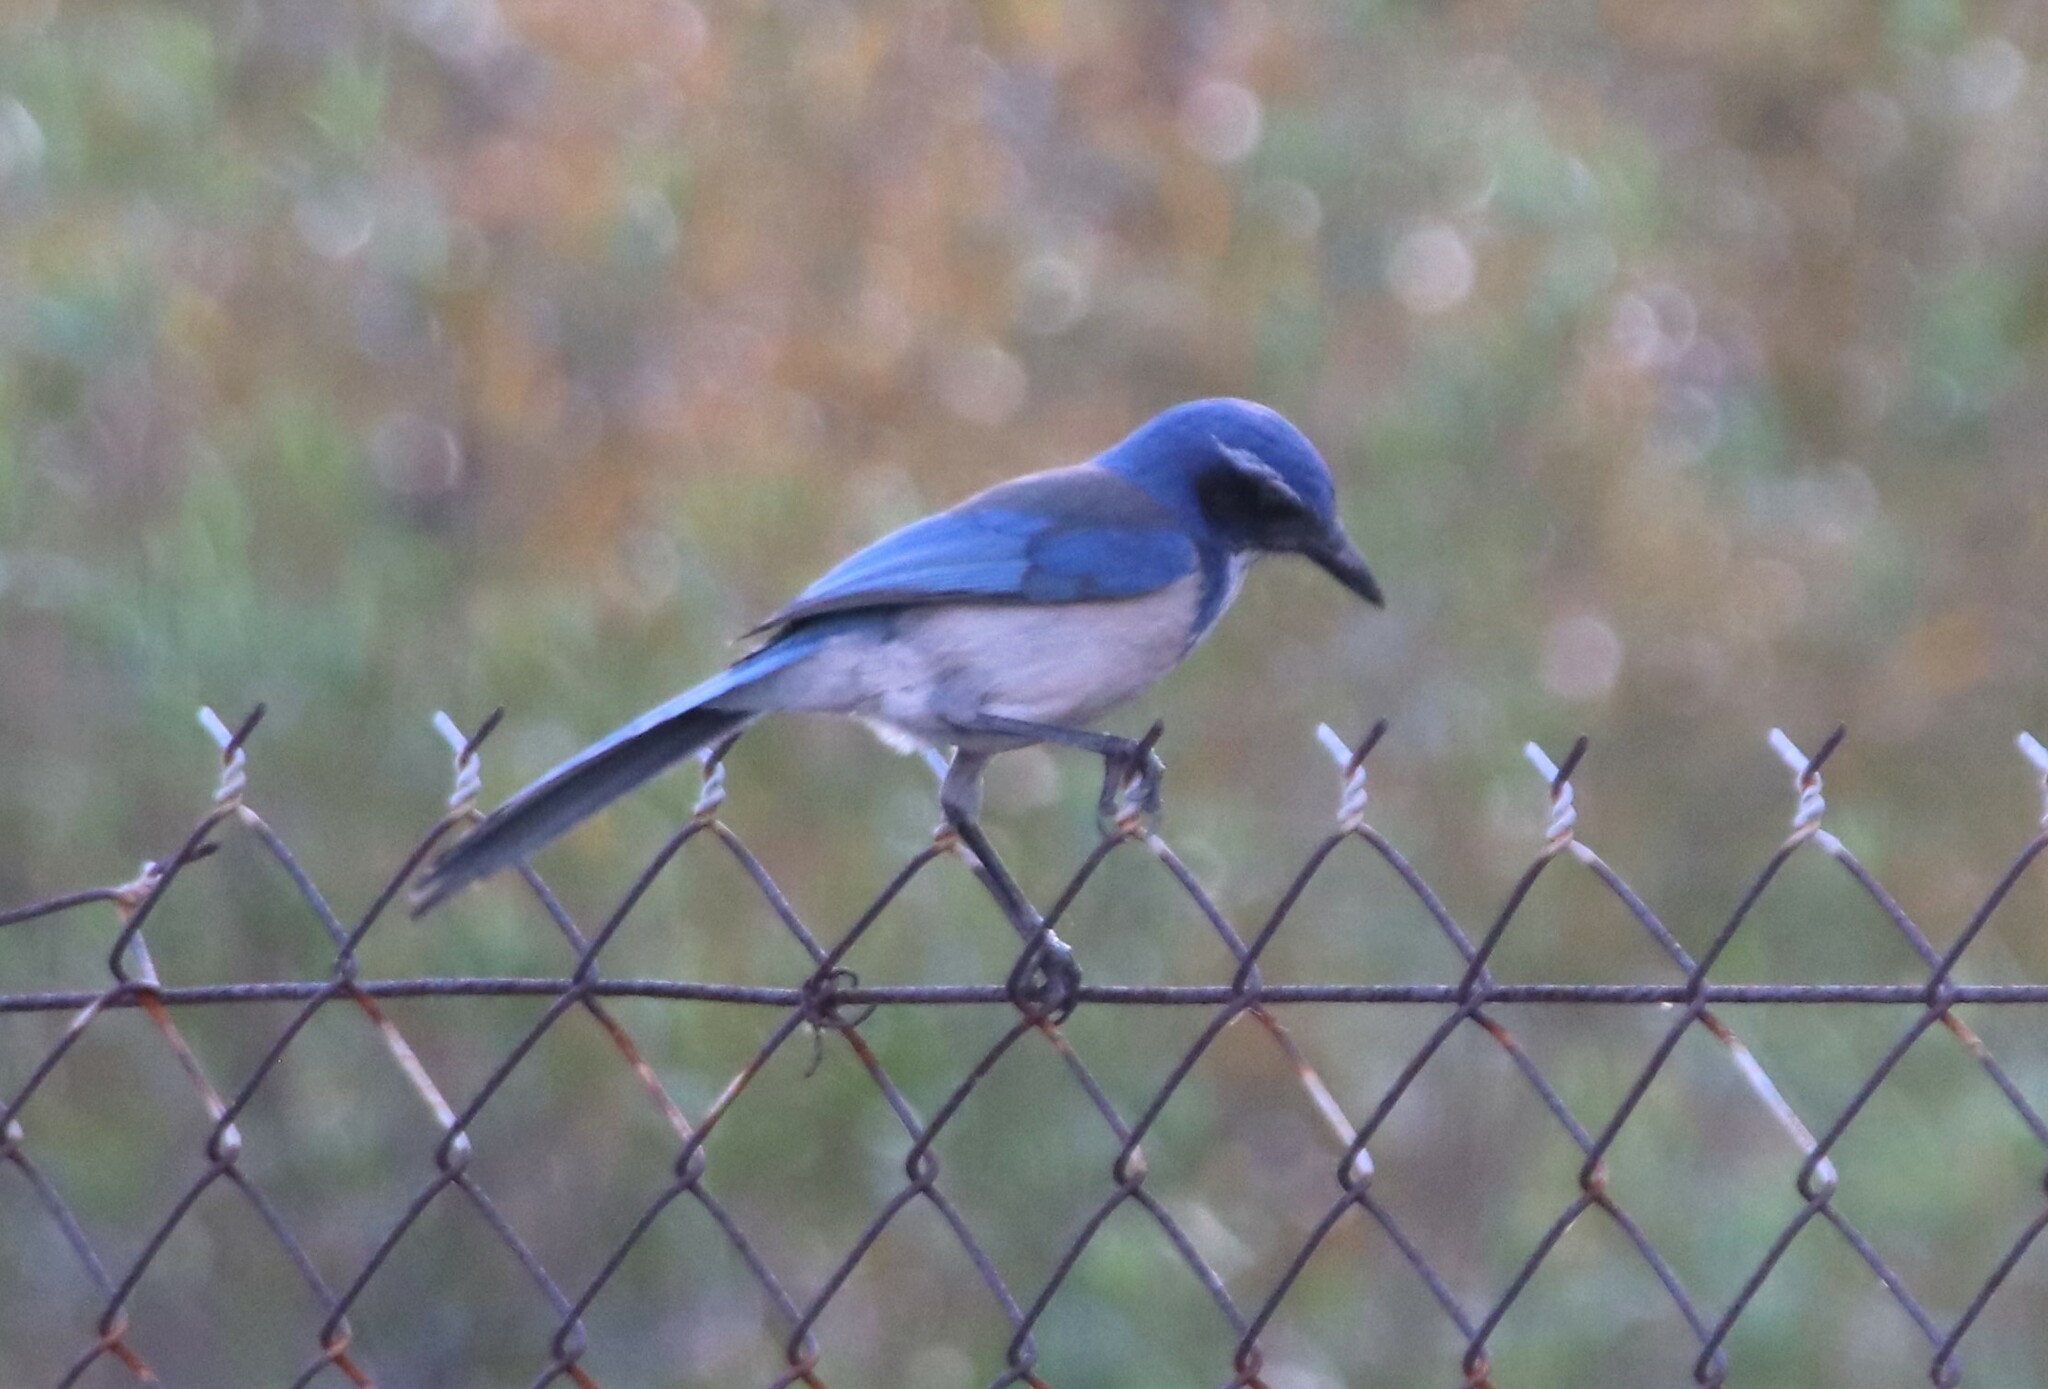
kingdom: Animalia
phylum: Chordata
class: Aves
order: Passeriformes
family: Corvidae
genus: Aphelocoma
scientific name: Aphelocoma californica
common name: California scrub-jay
